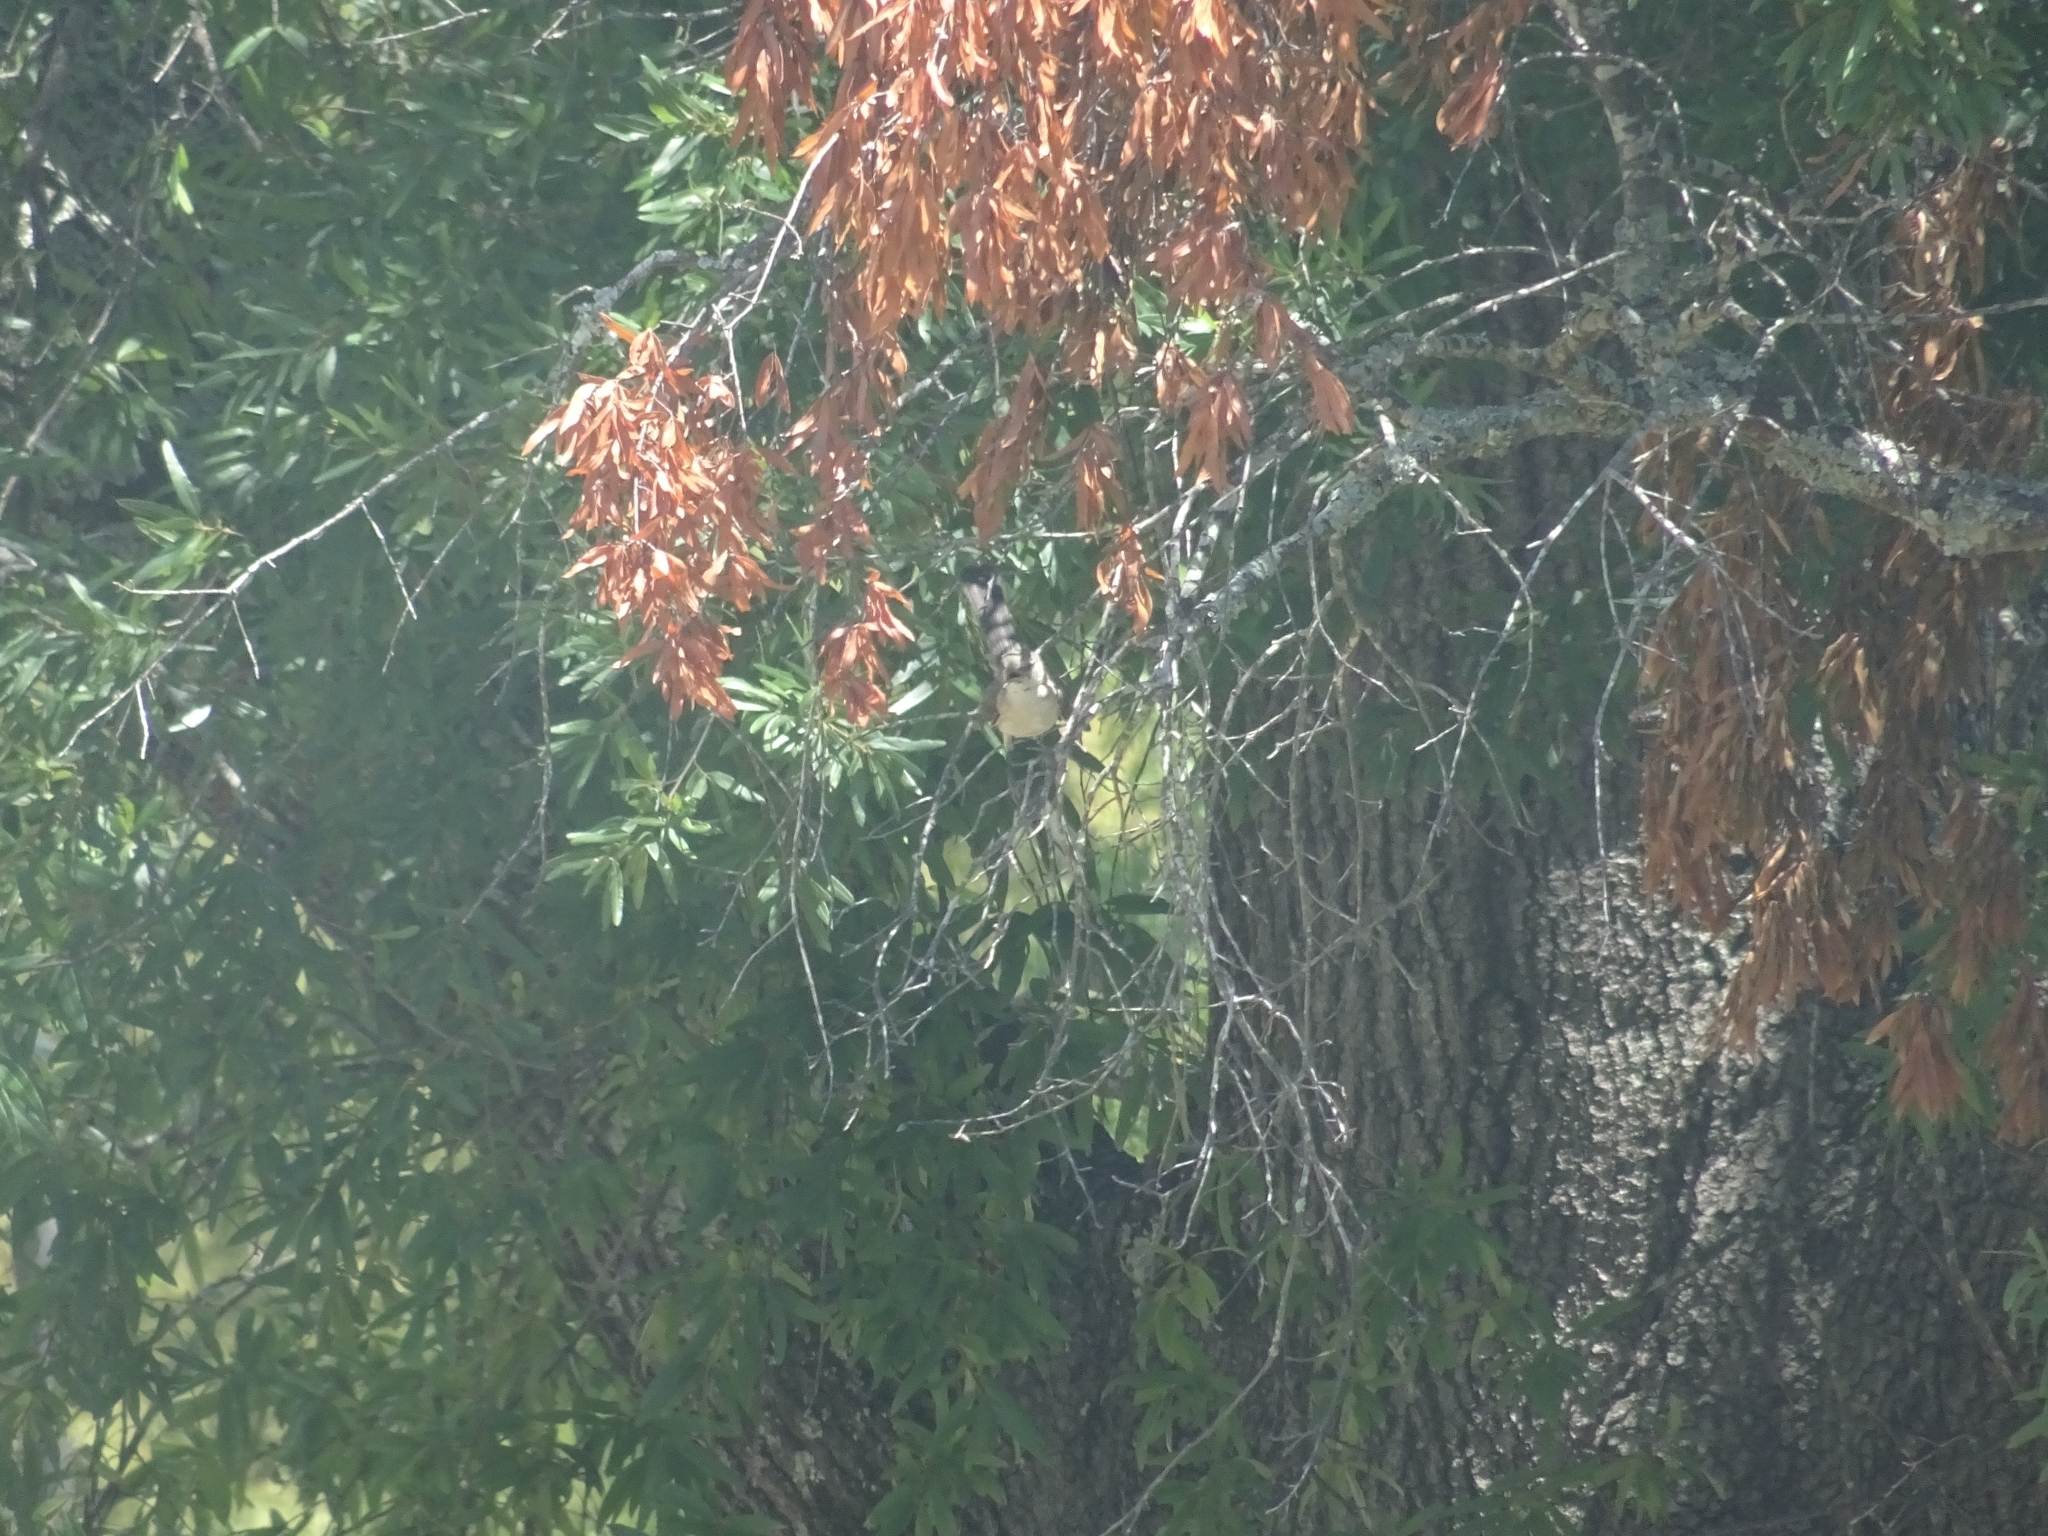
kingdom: Animalia
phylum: Chordata
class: Aves
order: Passeriformes
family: Mimidae
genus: Mimus
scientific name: Mimus polyglottos
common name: Northern mockingbird
